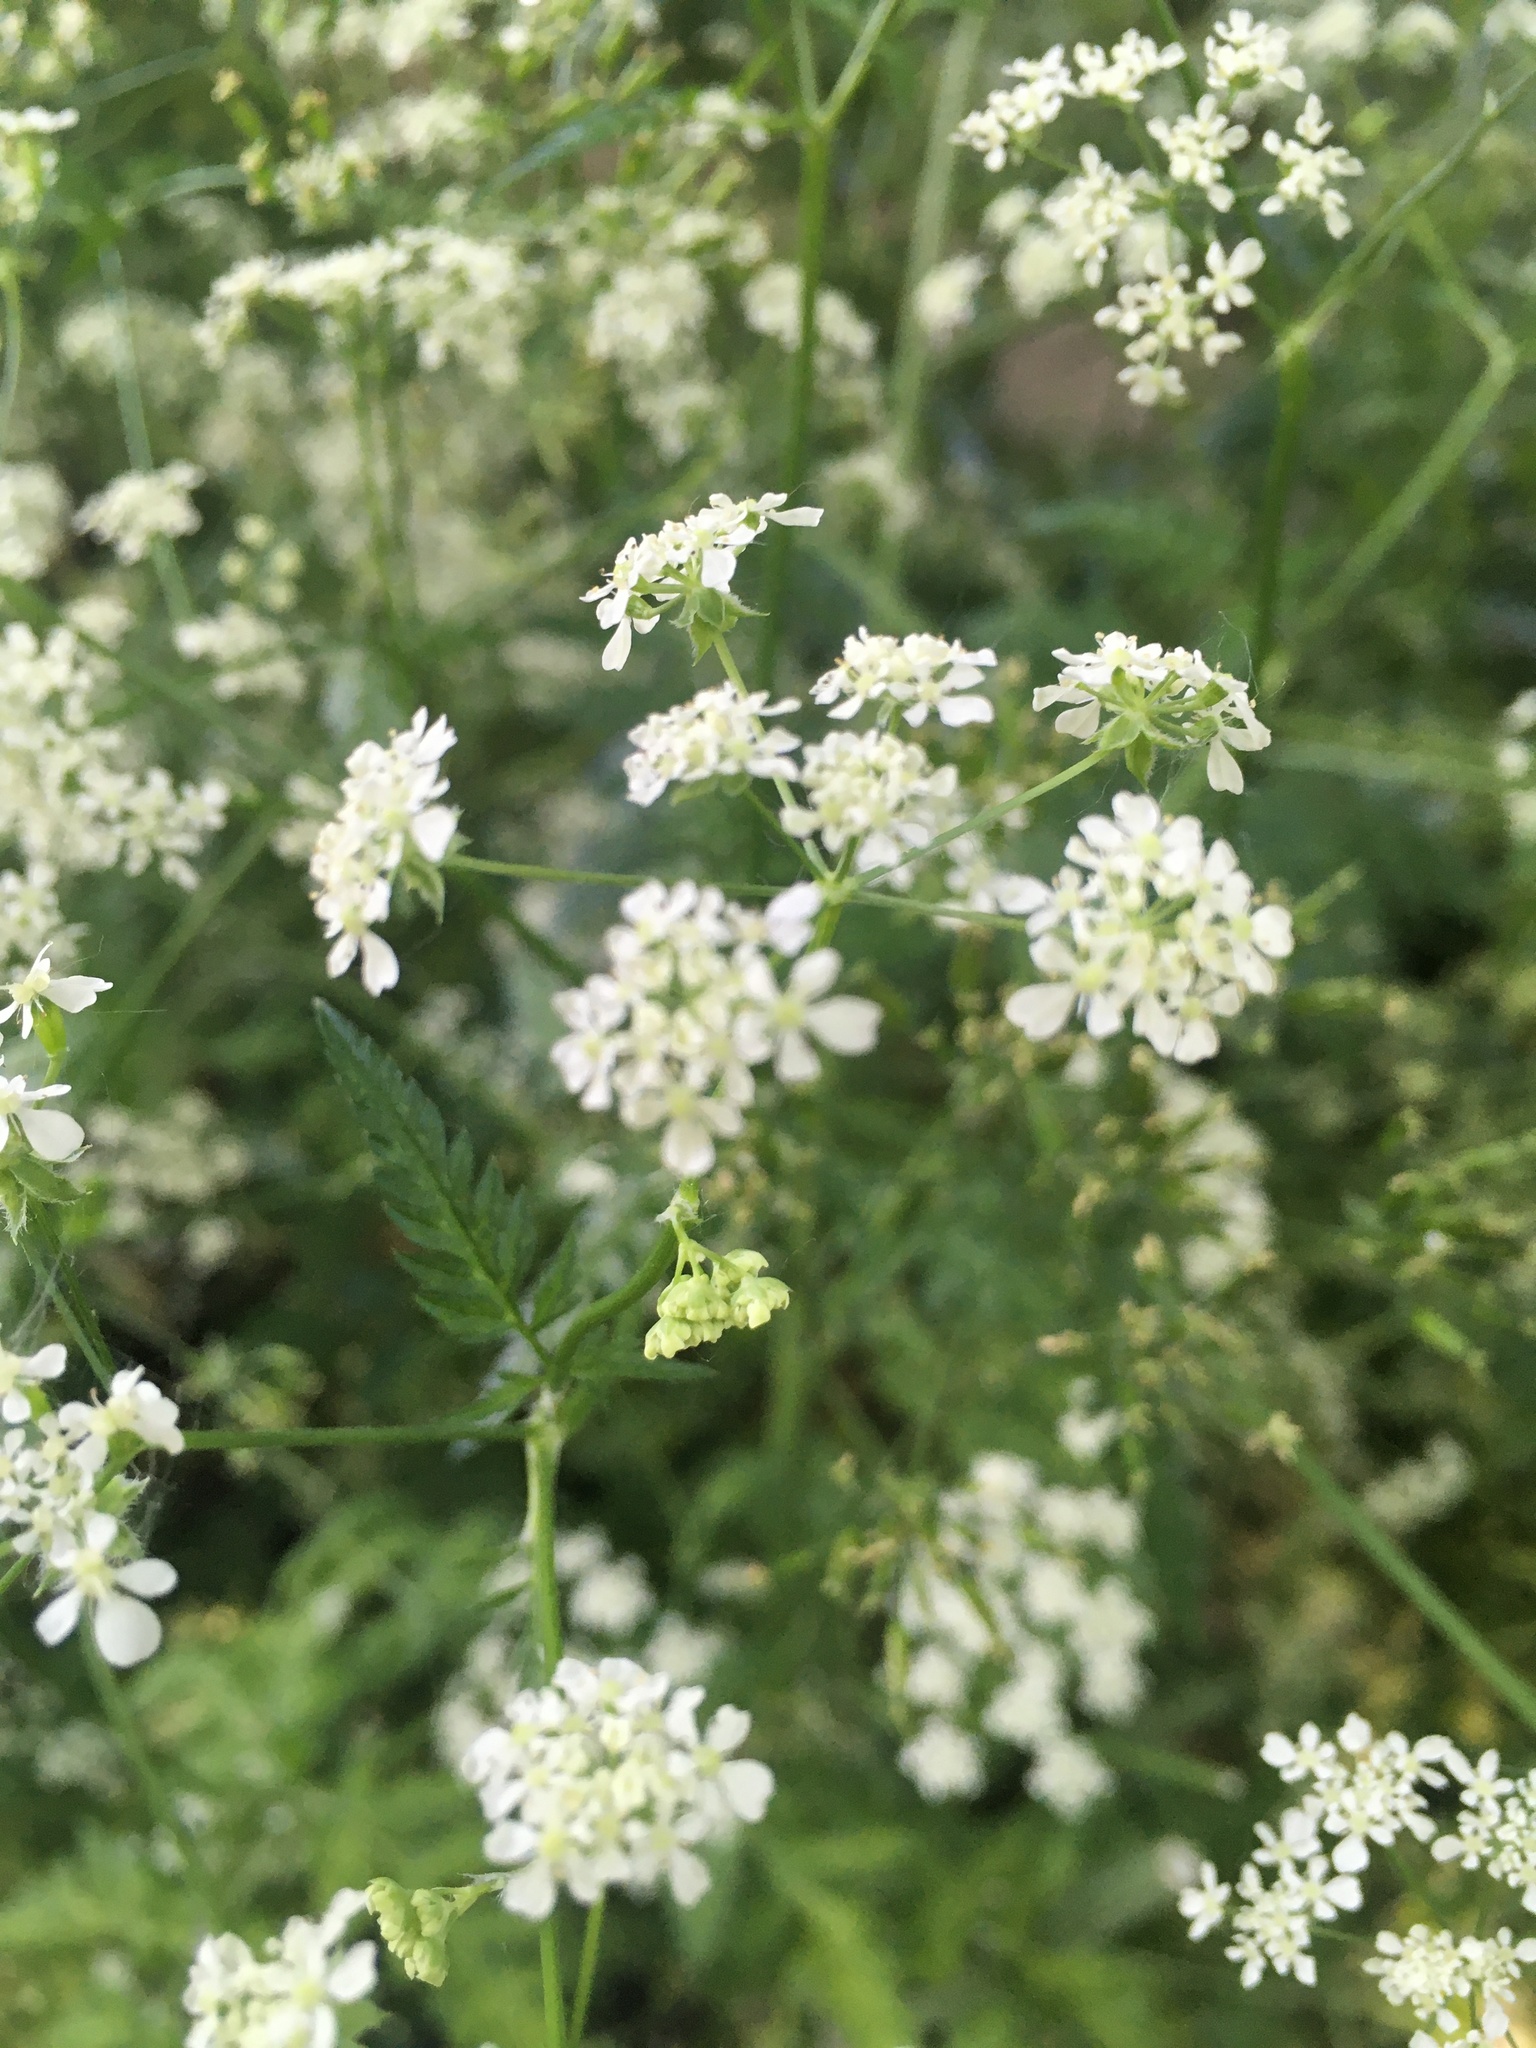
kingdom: Plantae
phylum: Tracheophyta
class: Magnoliopsida
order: Apiales
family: Apiaceae
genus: Anthriscus
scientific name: Anthriscus sylvestris
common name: Cow parsley
